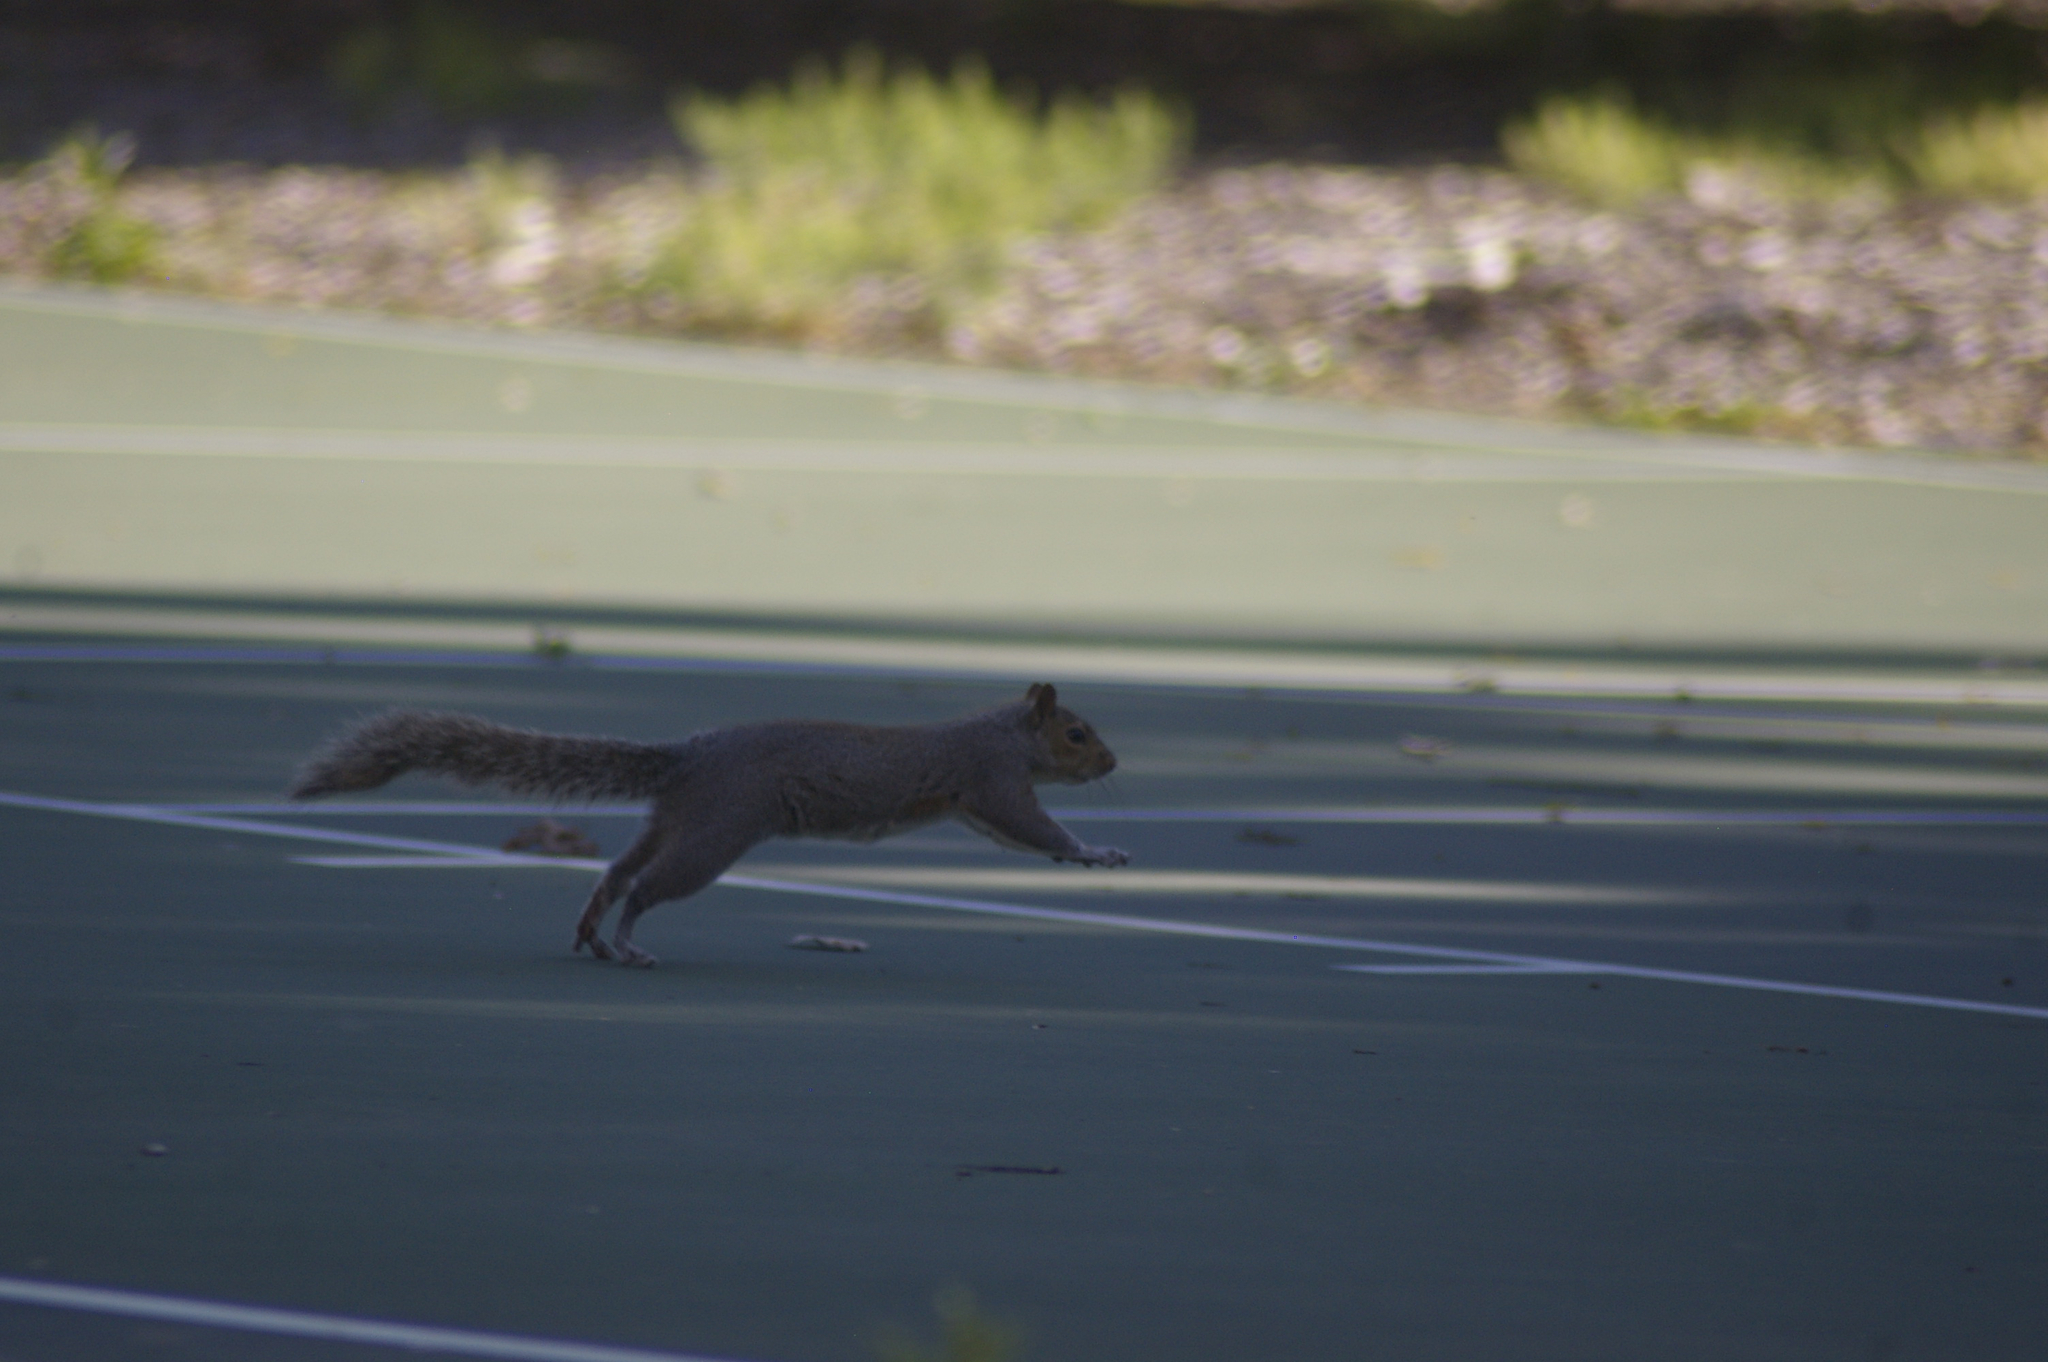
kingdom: Animalia
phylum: Chordata
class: Mammalia
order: Rodentia
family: Sciuridae
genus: Sciurus
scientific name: Sciurus carolinensis
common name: Eastern gray squirrel
